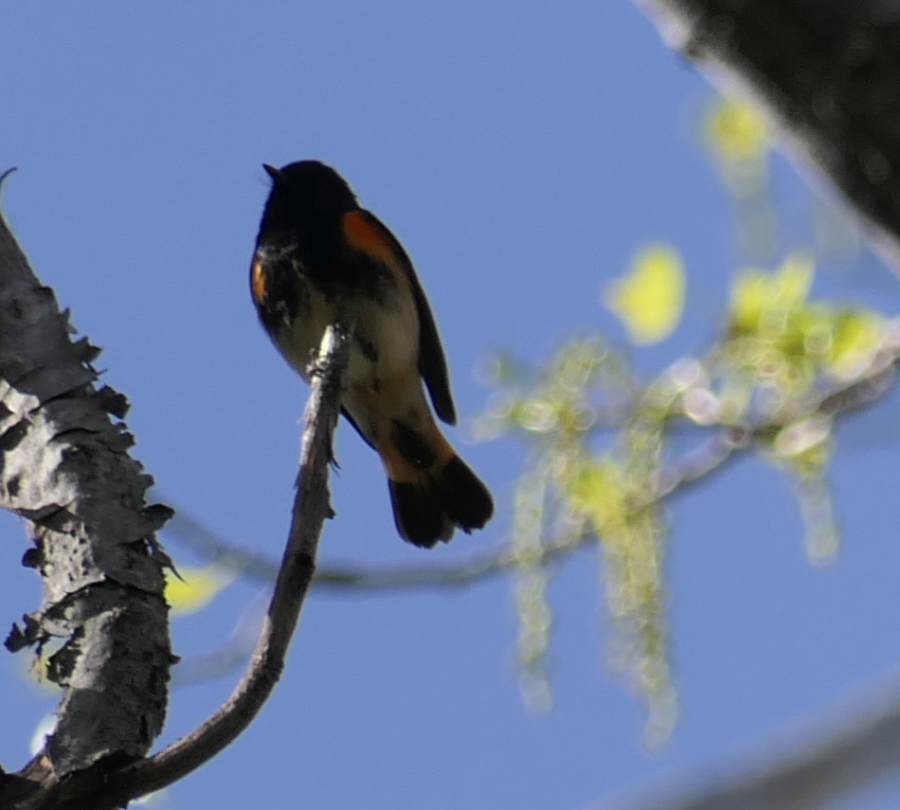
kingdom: Animalia
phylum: Chordata
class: Aves
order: Passeriformes
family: Parulidae
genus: Setophaga
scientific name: Setophaga ruticilla
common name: American redstart
